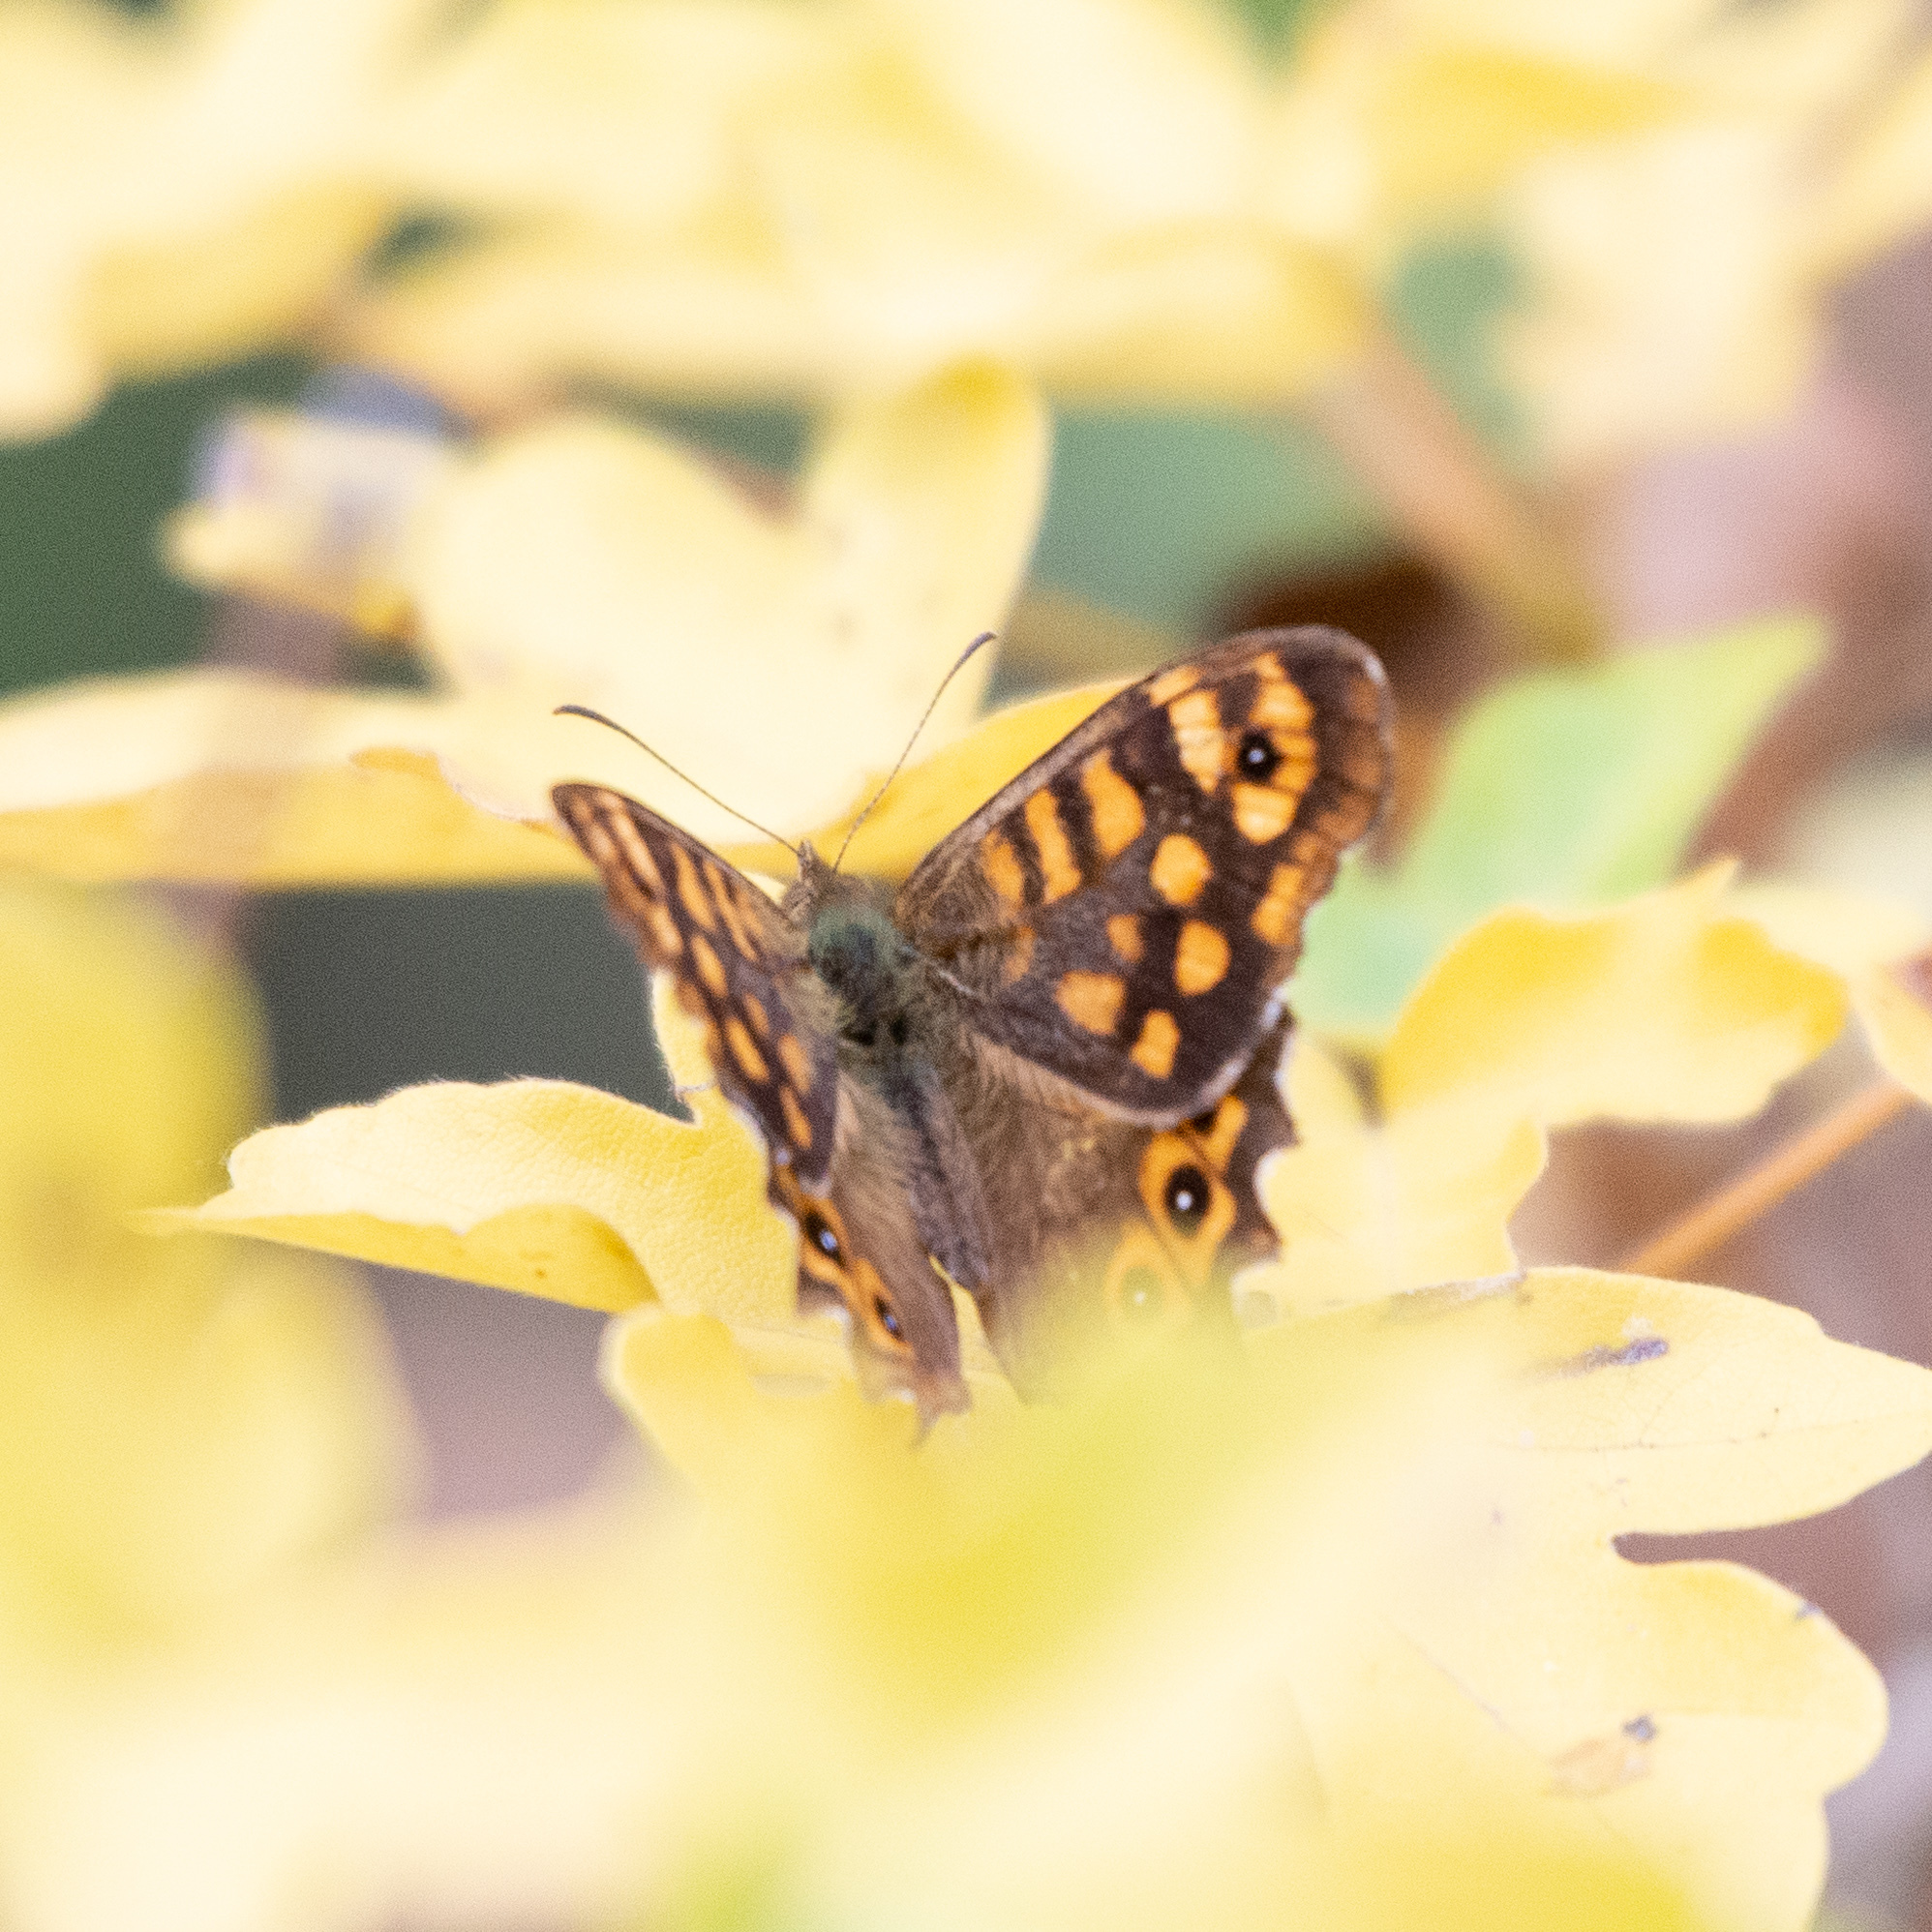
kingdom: Animalia
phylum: Arthropoda
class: Insecta
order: Lepidoptera
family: Nymphalidae
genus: Pararge
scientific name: Pararge aegeria
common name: Speckled wood
